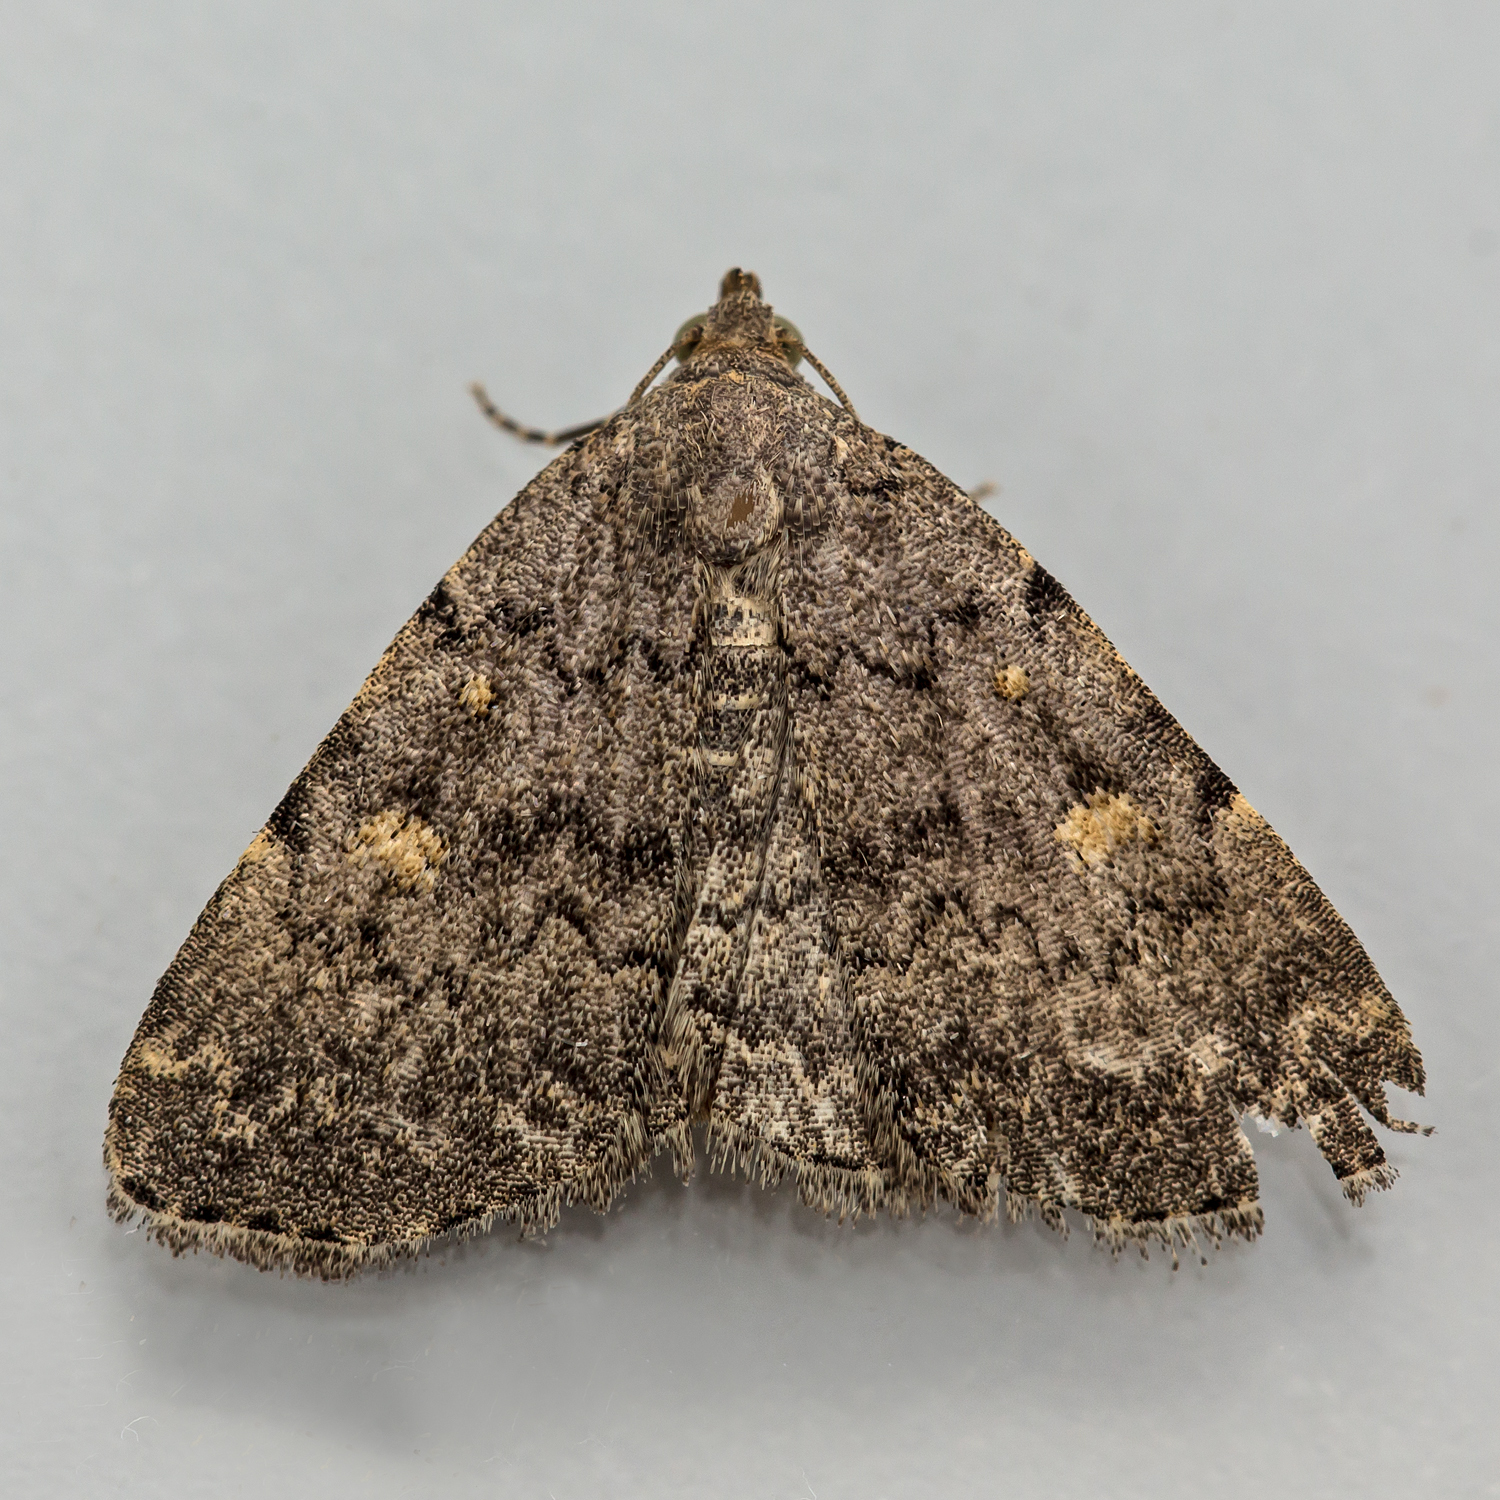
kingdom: Animalia
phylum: Arthropoda
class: Insecta
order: Lepidoptera
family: Erebidae
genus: Idia
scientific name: Idia aemula
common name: Common idia moth
